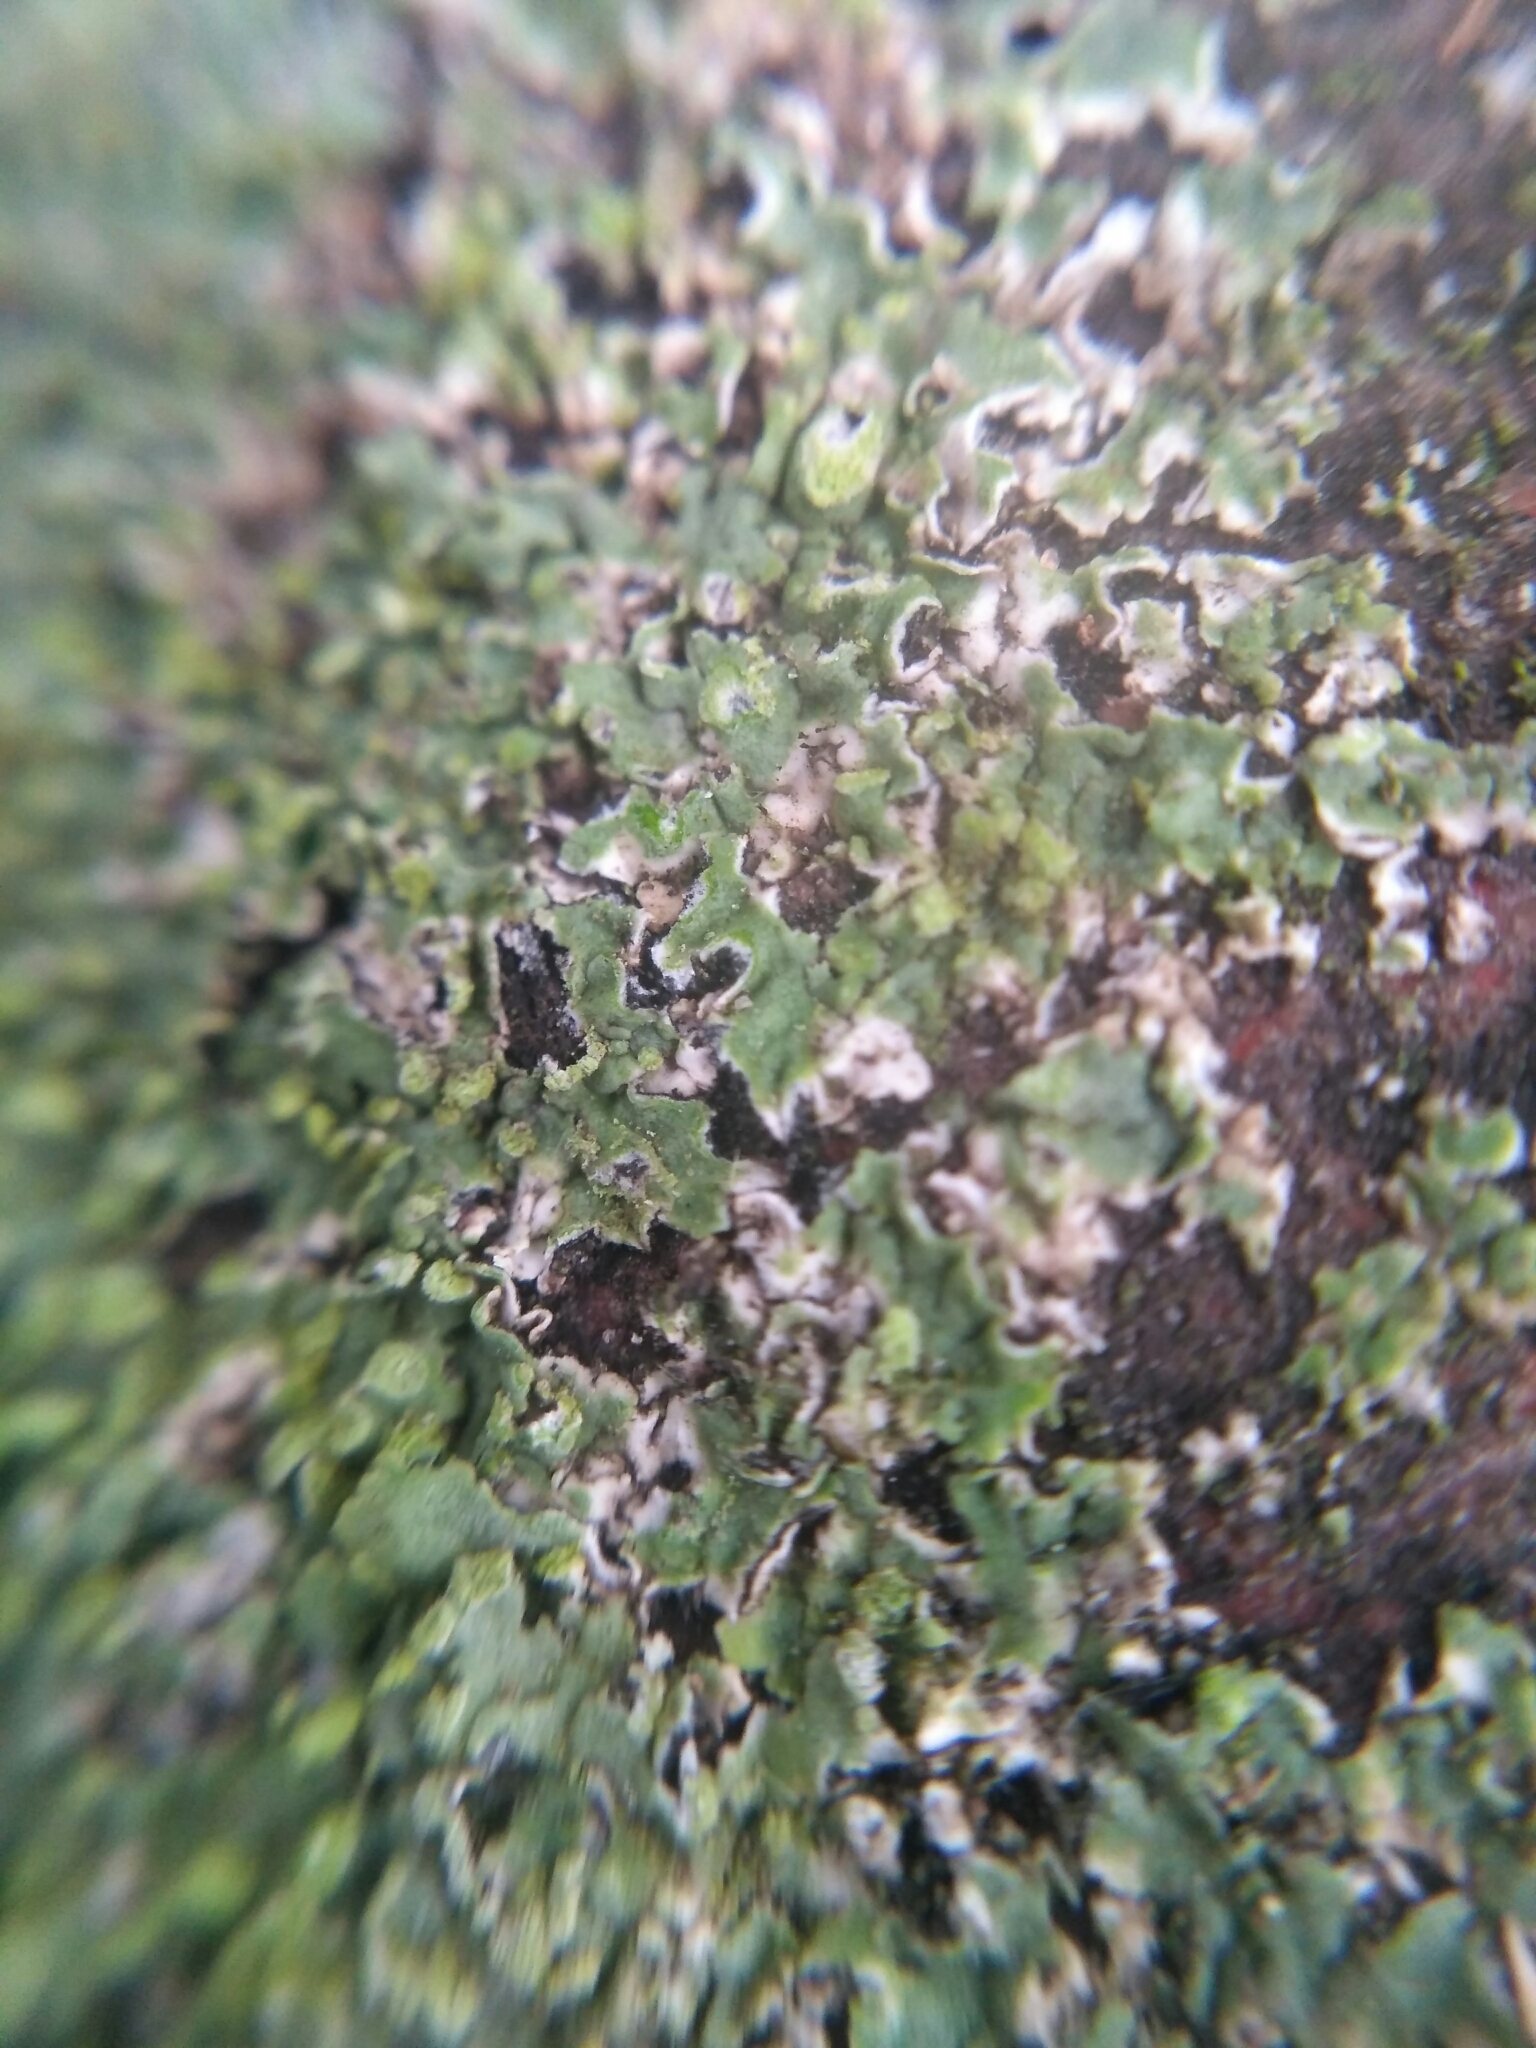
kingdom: Fungi
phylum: Ascomycota
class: Lecanoromycetes
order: Caliciales
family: Physciaceae
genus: Phaeophyscia
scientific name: Phaeophyscia orbicularis
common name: Mealy shadow lichen
